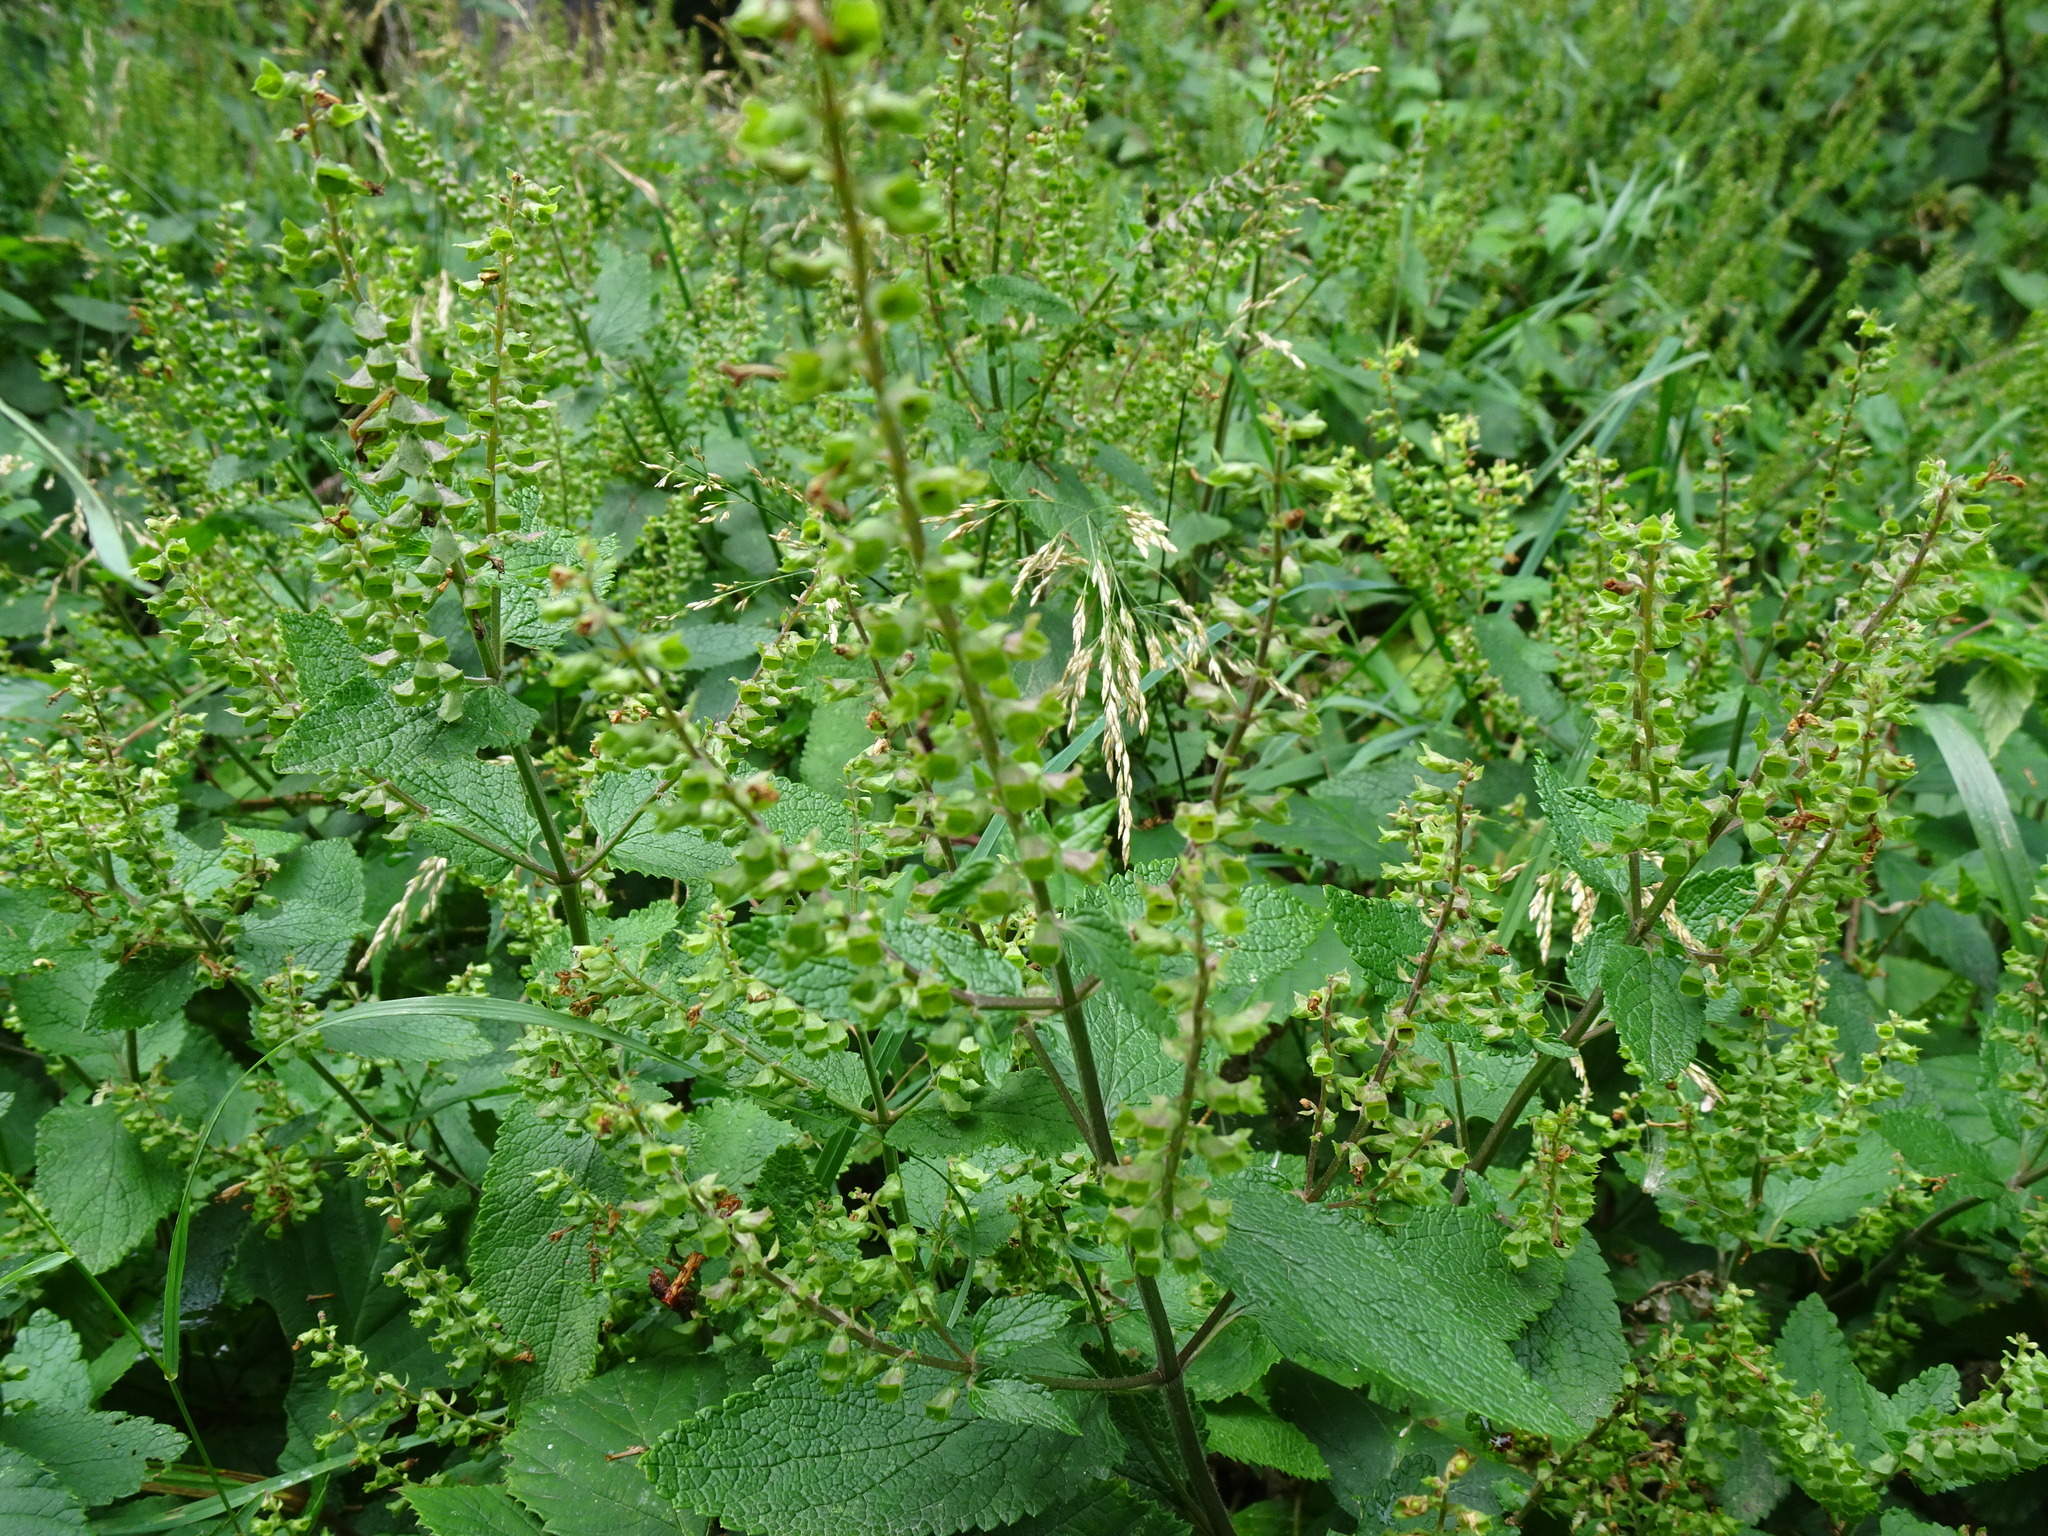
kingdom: Plantae
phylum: Tracheophyta
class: Magnoliopsida
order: Lamiales
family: Lamiaceae
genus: Teucrium
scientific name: Teucrium scorodonia
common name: Woodland germander
